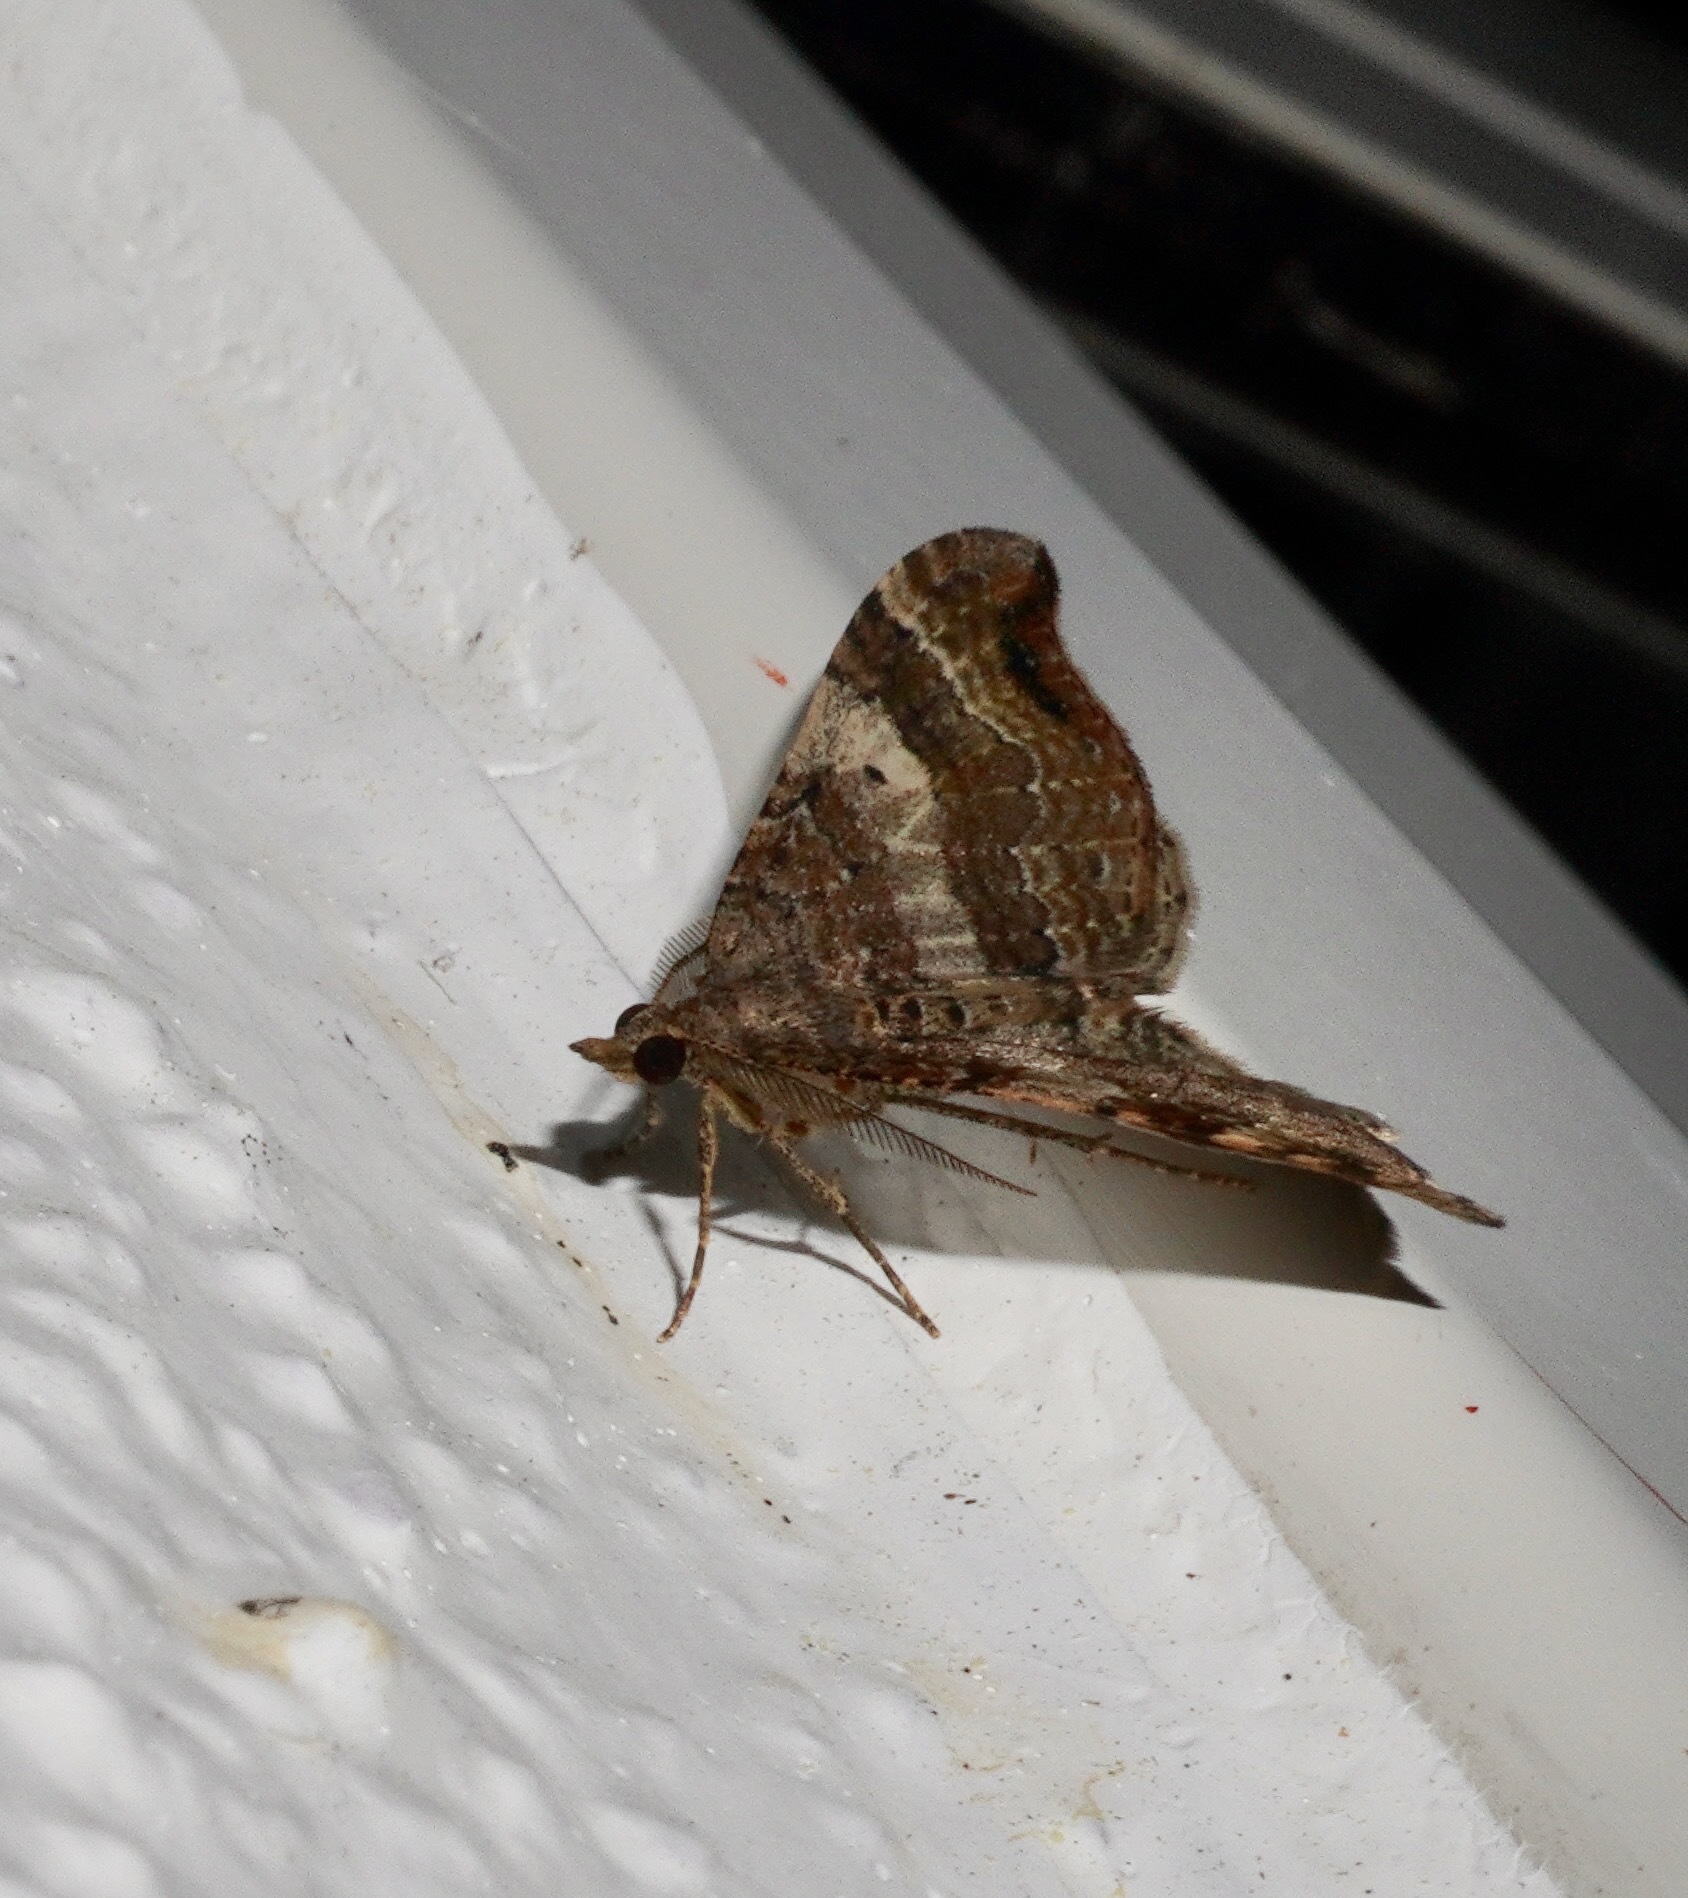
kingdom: Animalia
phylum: Arthropoda
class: Insecta
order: Lepidoptera
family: Geometridae
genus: Homodotis
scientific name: Homodotis megaspilata
